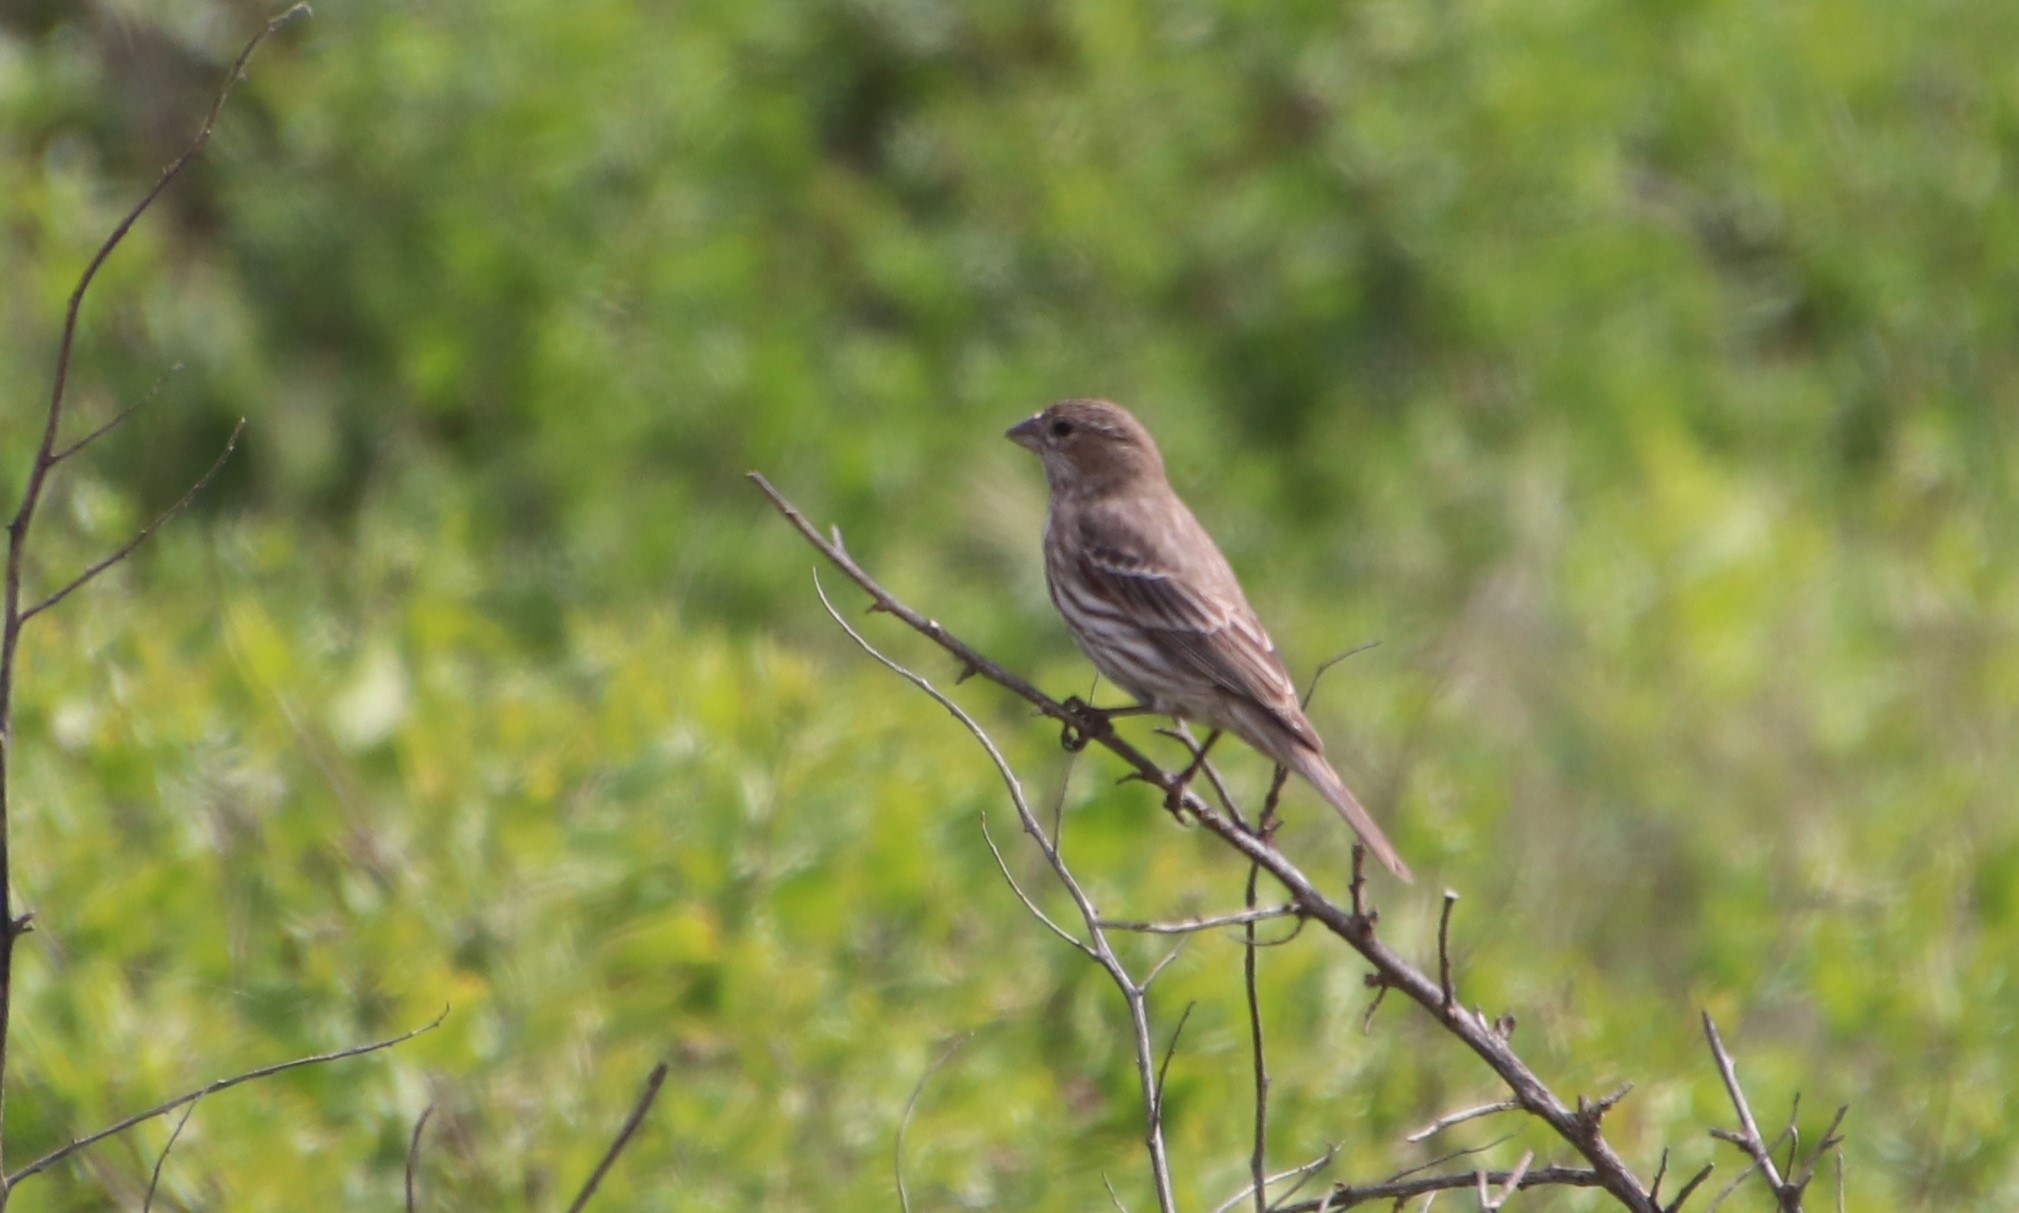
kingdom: Animalia
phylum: Chordata
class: Aves
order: Passeriformes
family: Fringillidae
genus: Haemorhous
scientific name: Haemorhous mexicanus
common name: House finch
